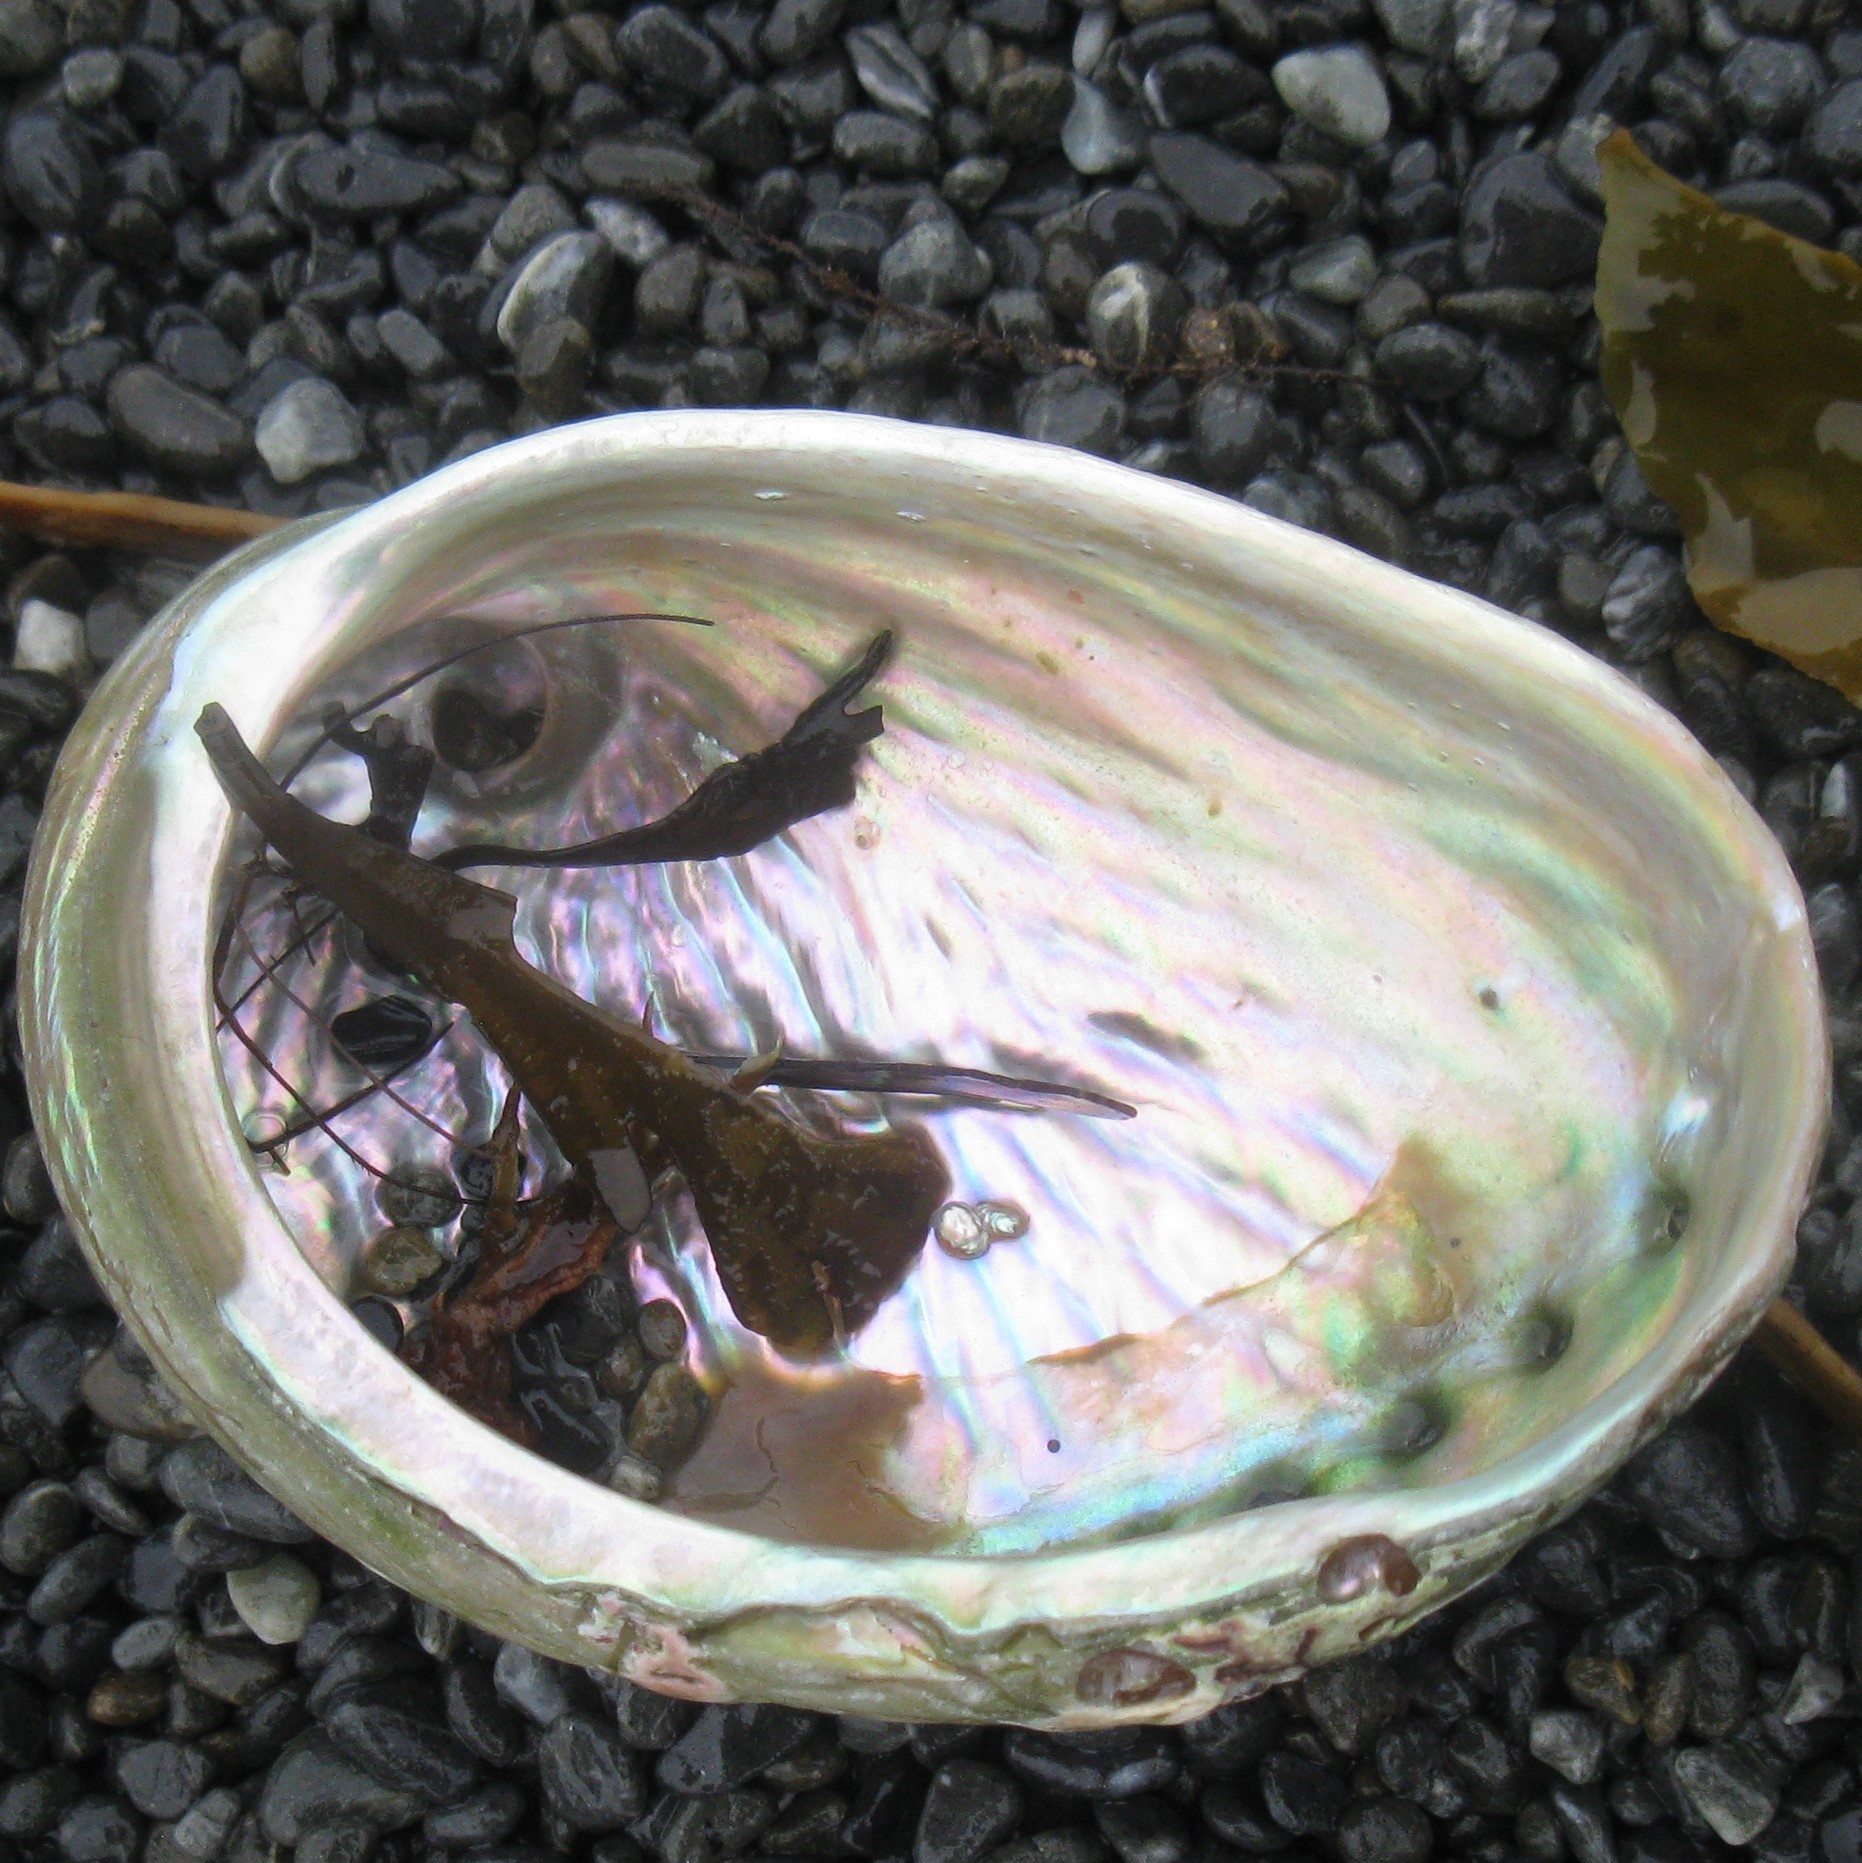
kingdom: Animalia
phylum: Mollusca
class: Gastropoda
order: Lepetellida
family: Haliotidae
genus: Haliotis
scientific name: Haliotis australis
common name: Silver abalone
